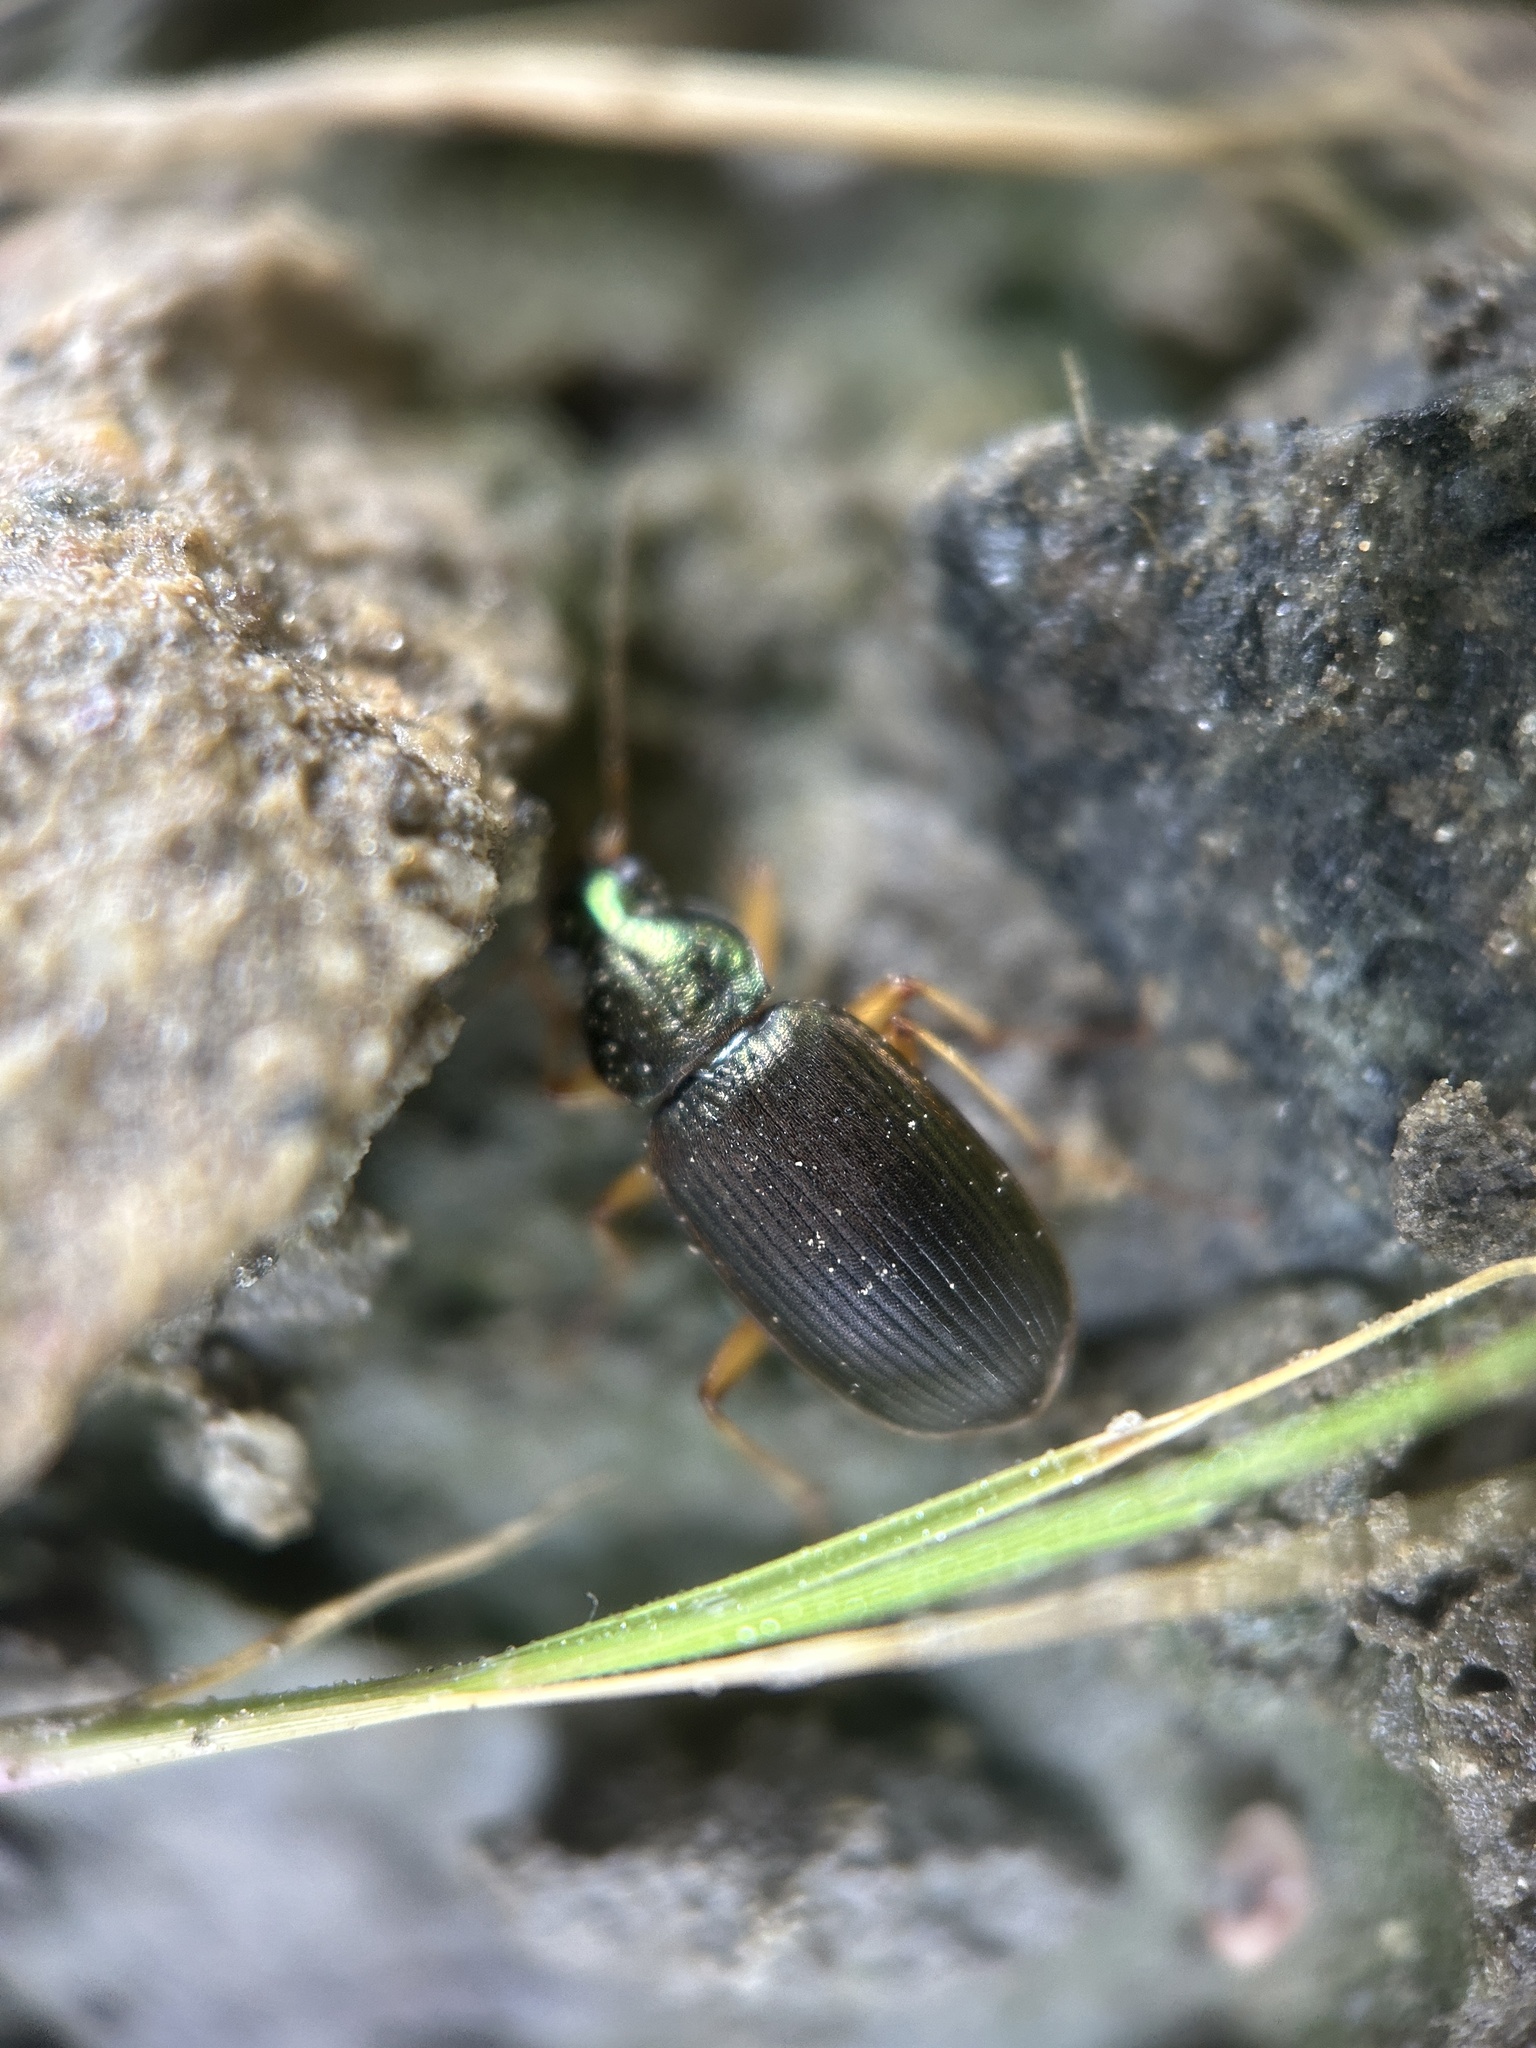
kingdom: Animalia
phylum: Arthropoda
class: Insecta
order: Coleoptera
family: Carabidae
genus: Chlaenius
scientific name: Chlaenius pennsylvanicus
